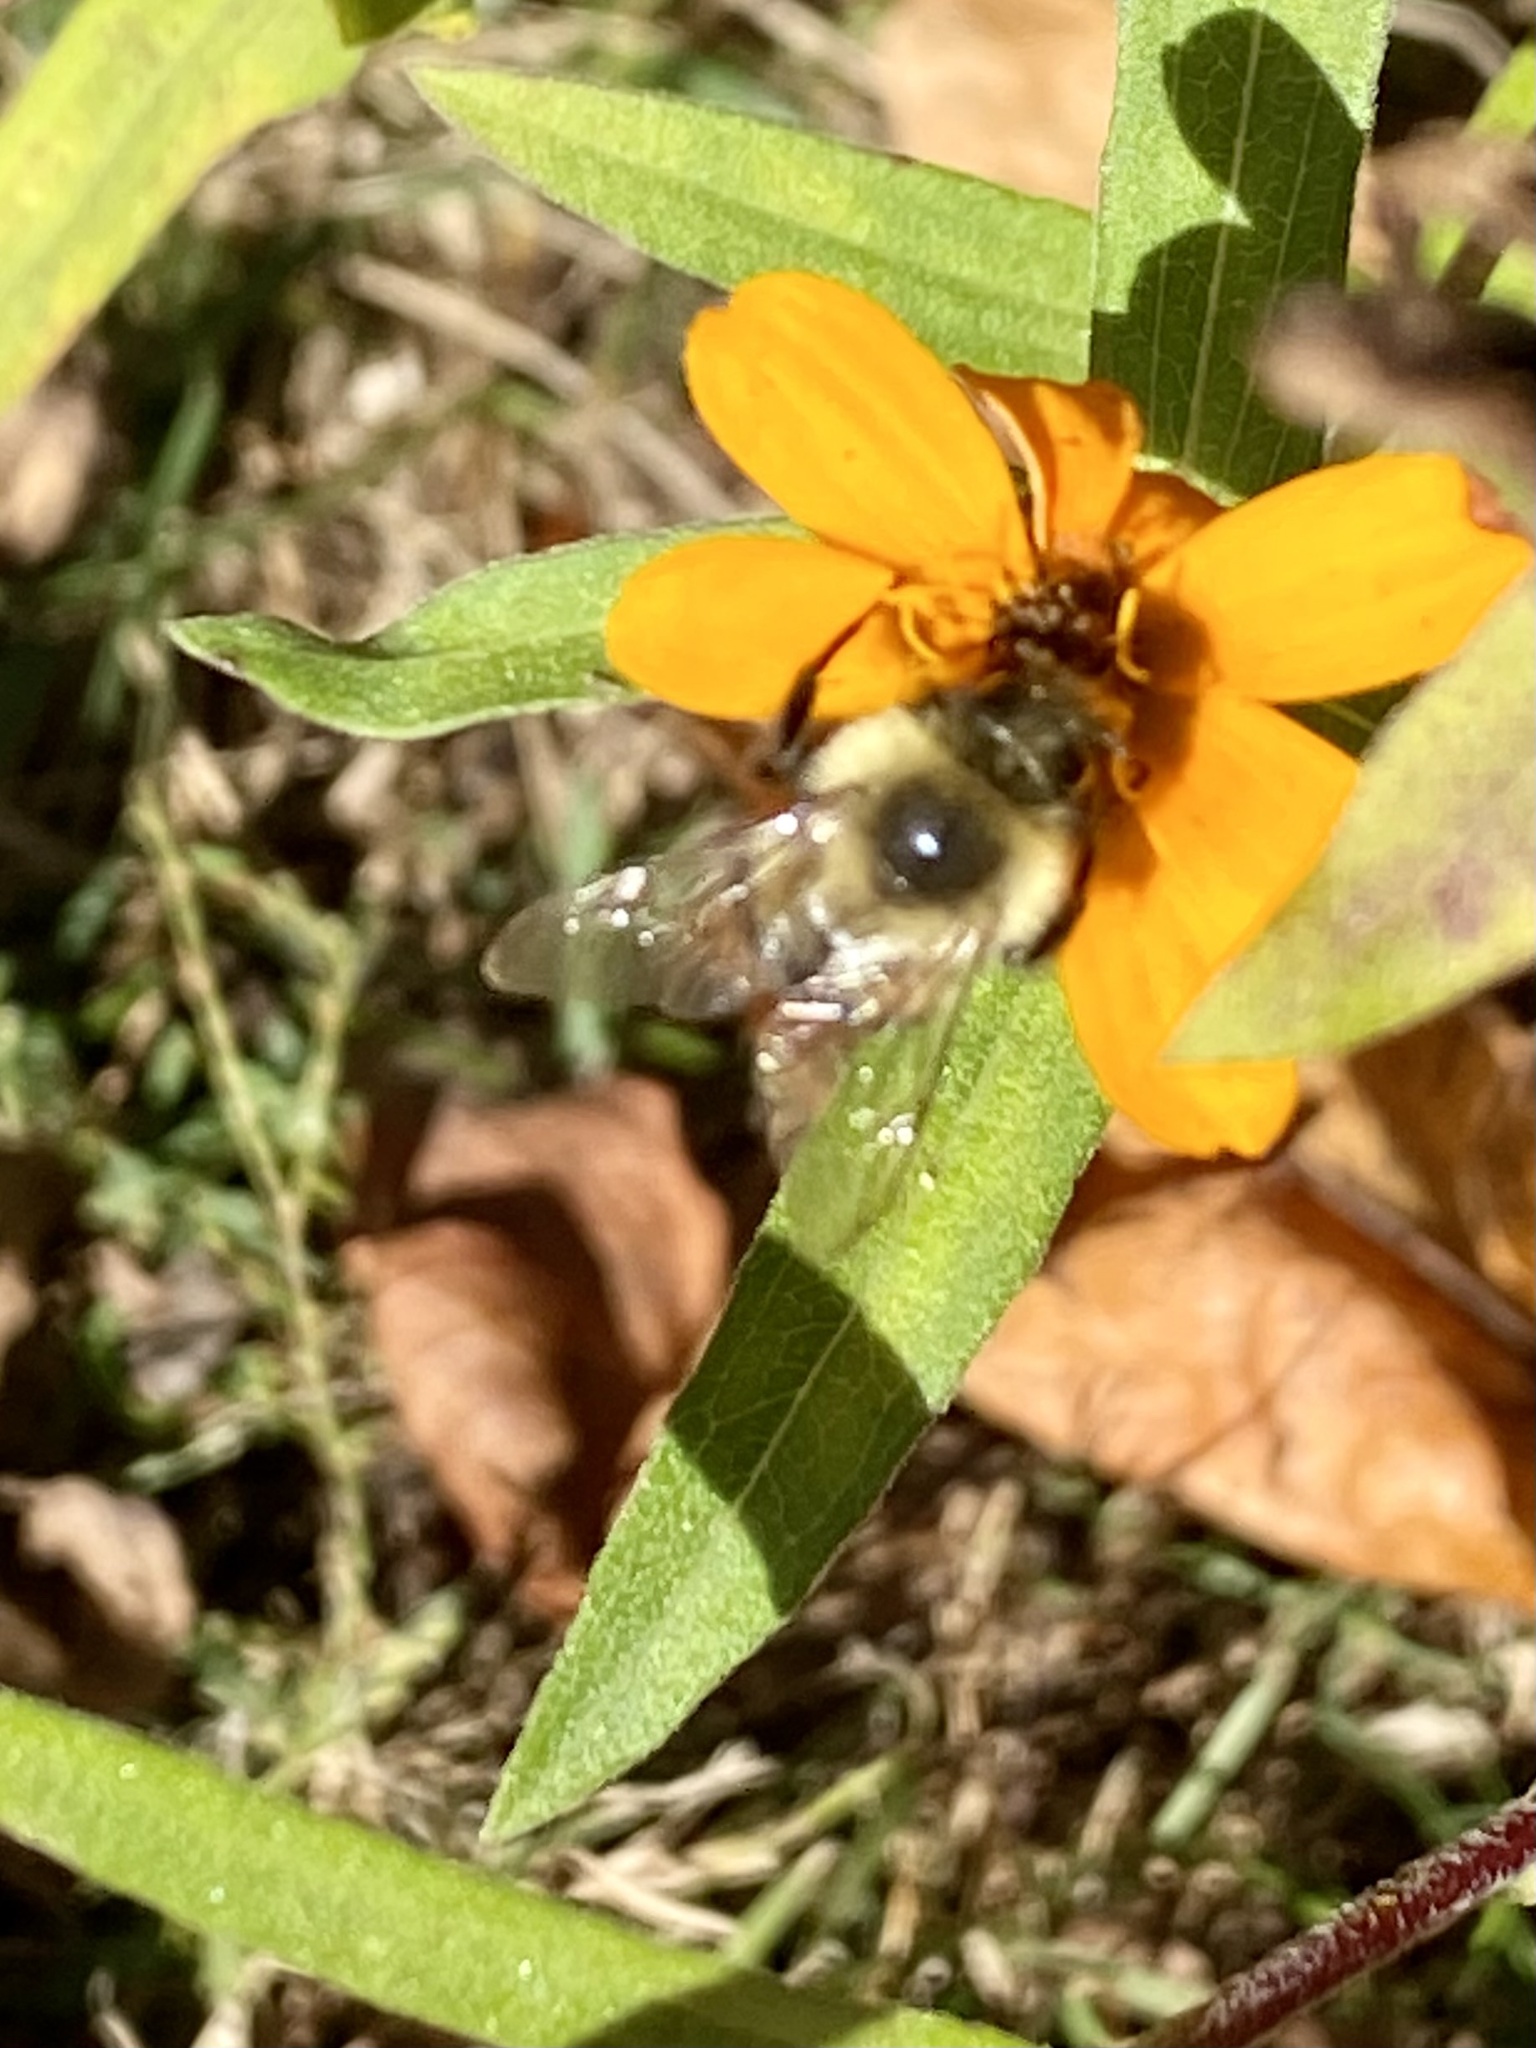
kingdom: Animalia
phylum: Arthropoda
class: Insecta
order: Hymenoptera
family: Apidae
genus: Bombus
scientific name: Bombus impatiens
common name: Common eastern bumble bee
